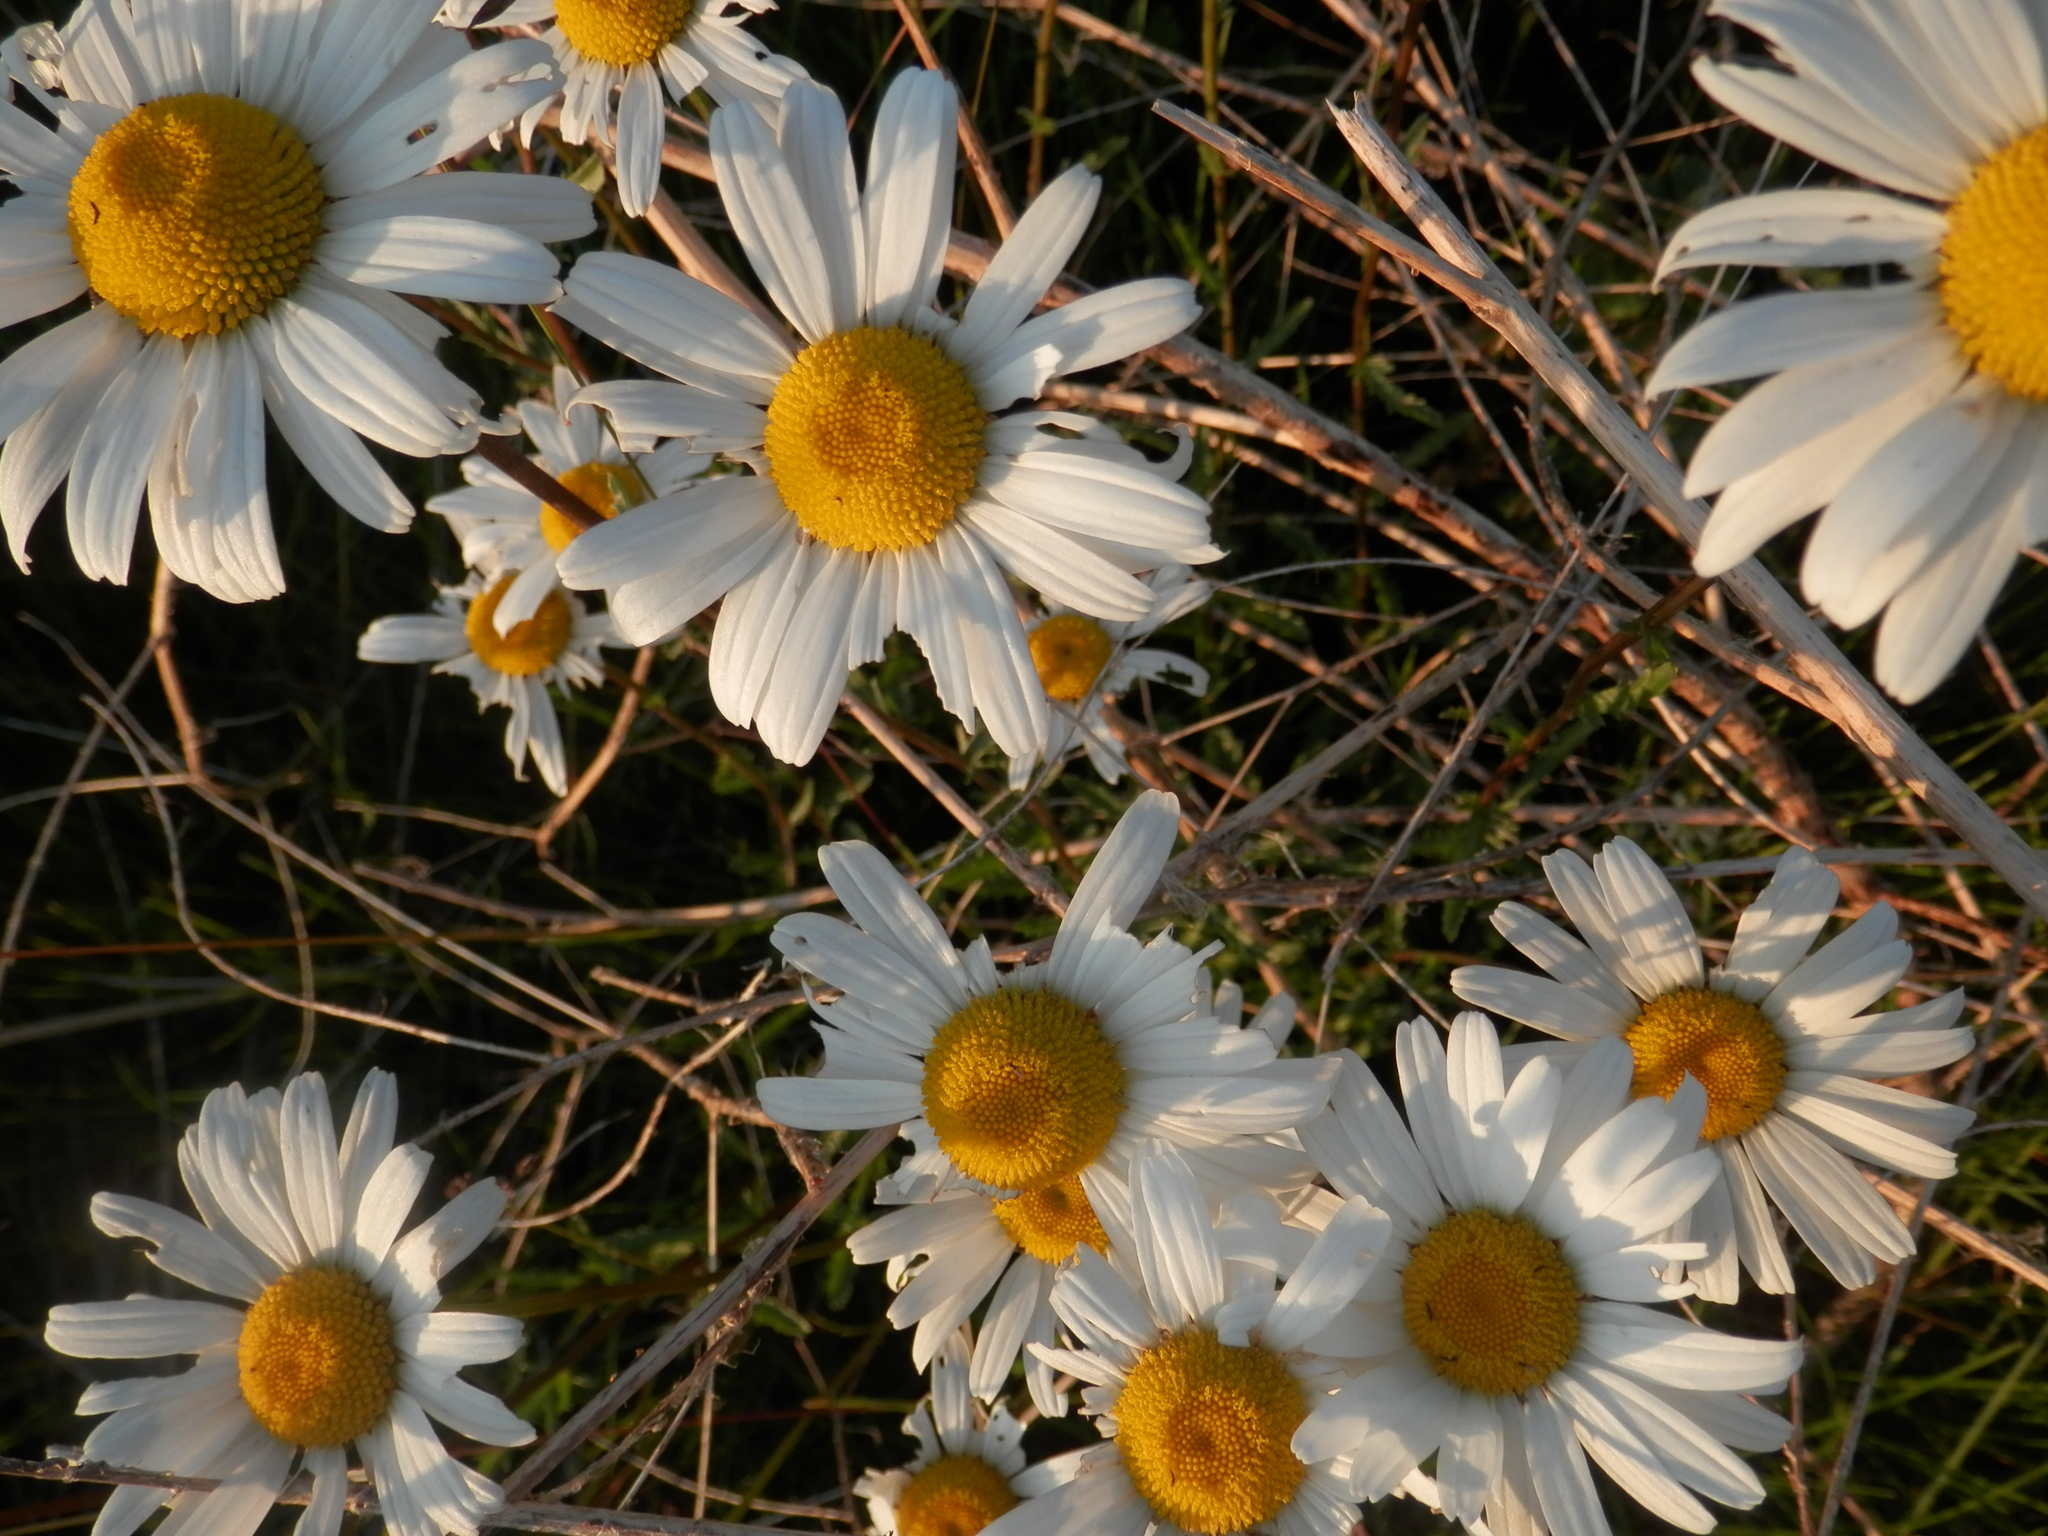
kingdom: Plantae
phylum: Tracheophyta
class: Magnoliopsida
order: Asterales
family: Asteraceae
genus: Leucanthemum
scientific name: Leucanthemum vulgare
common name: Oxeye daisy
